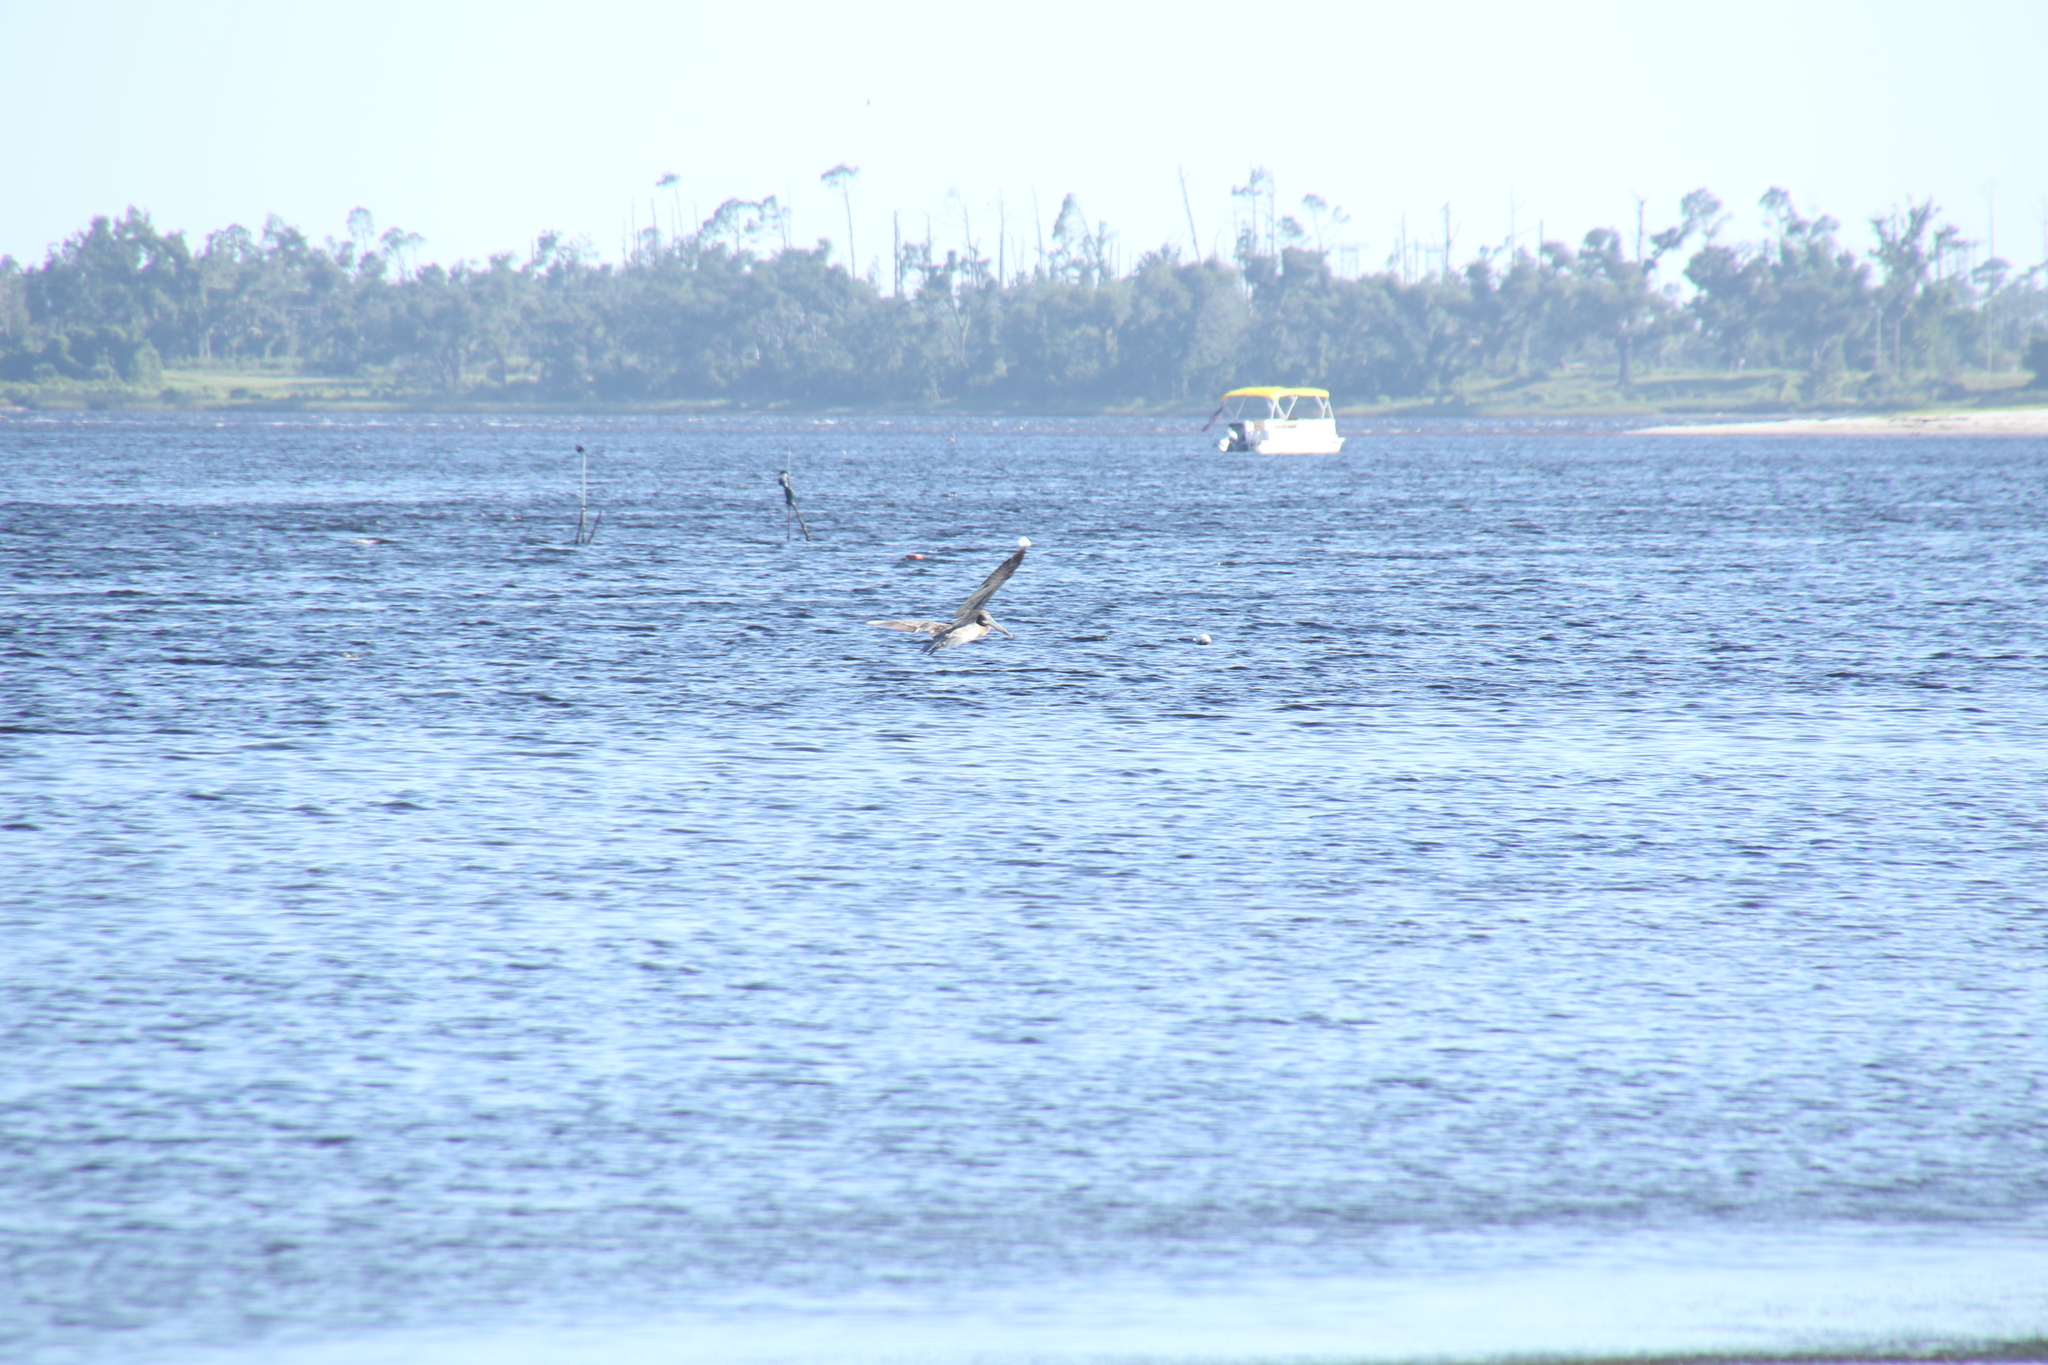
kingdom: Animalia
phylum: Chordata
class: Aves
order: Pelecaniformes
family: Pelecanidae
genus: Pelecanus
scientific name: Pelecanus occidentalis
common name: Brown pelican
